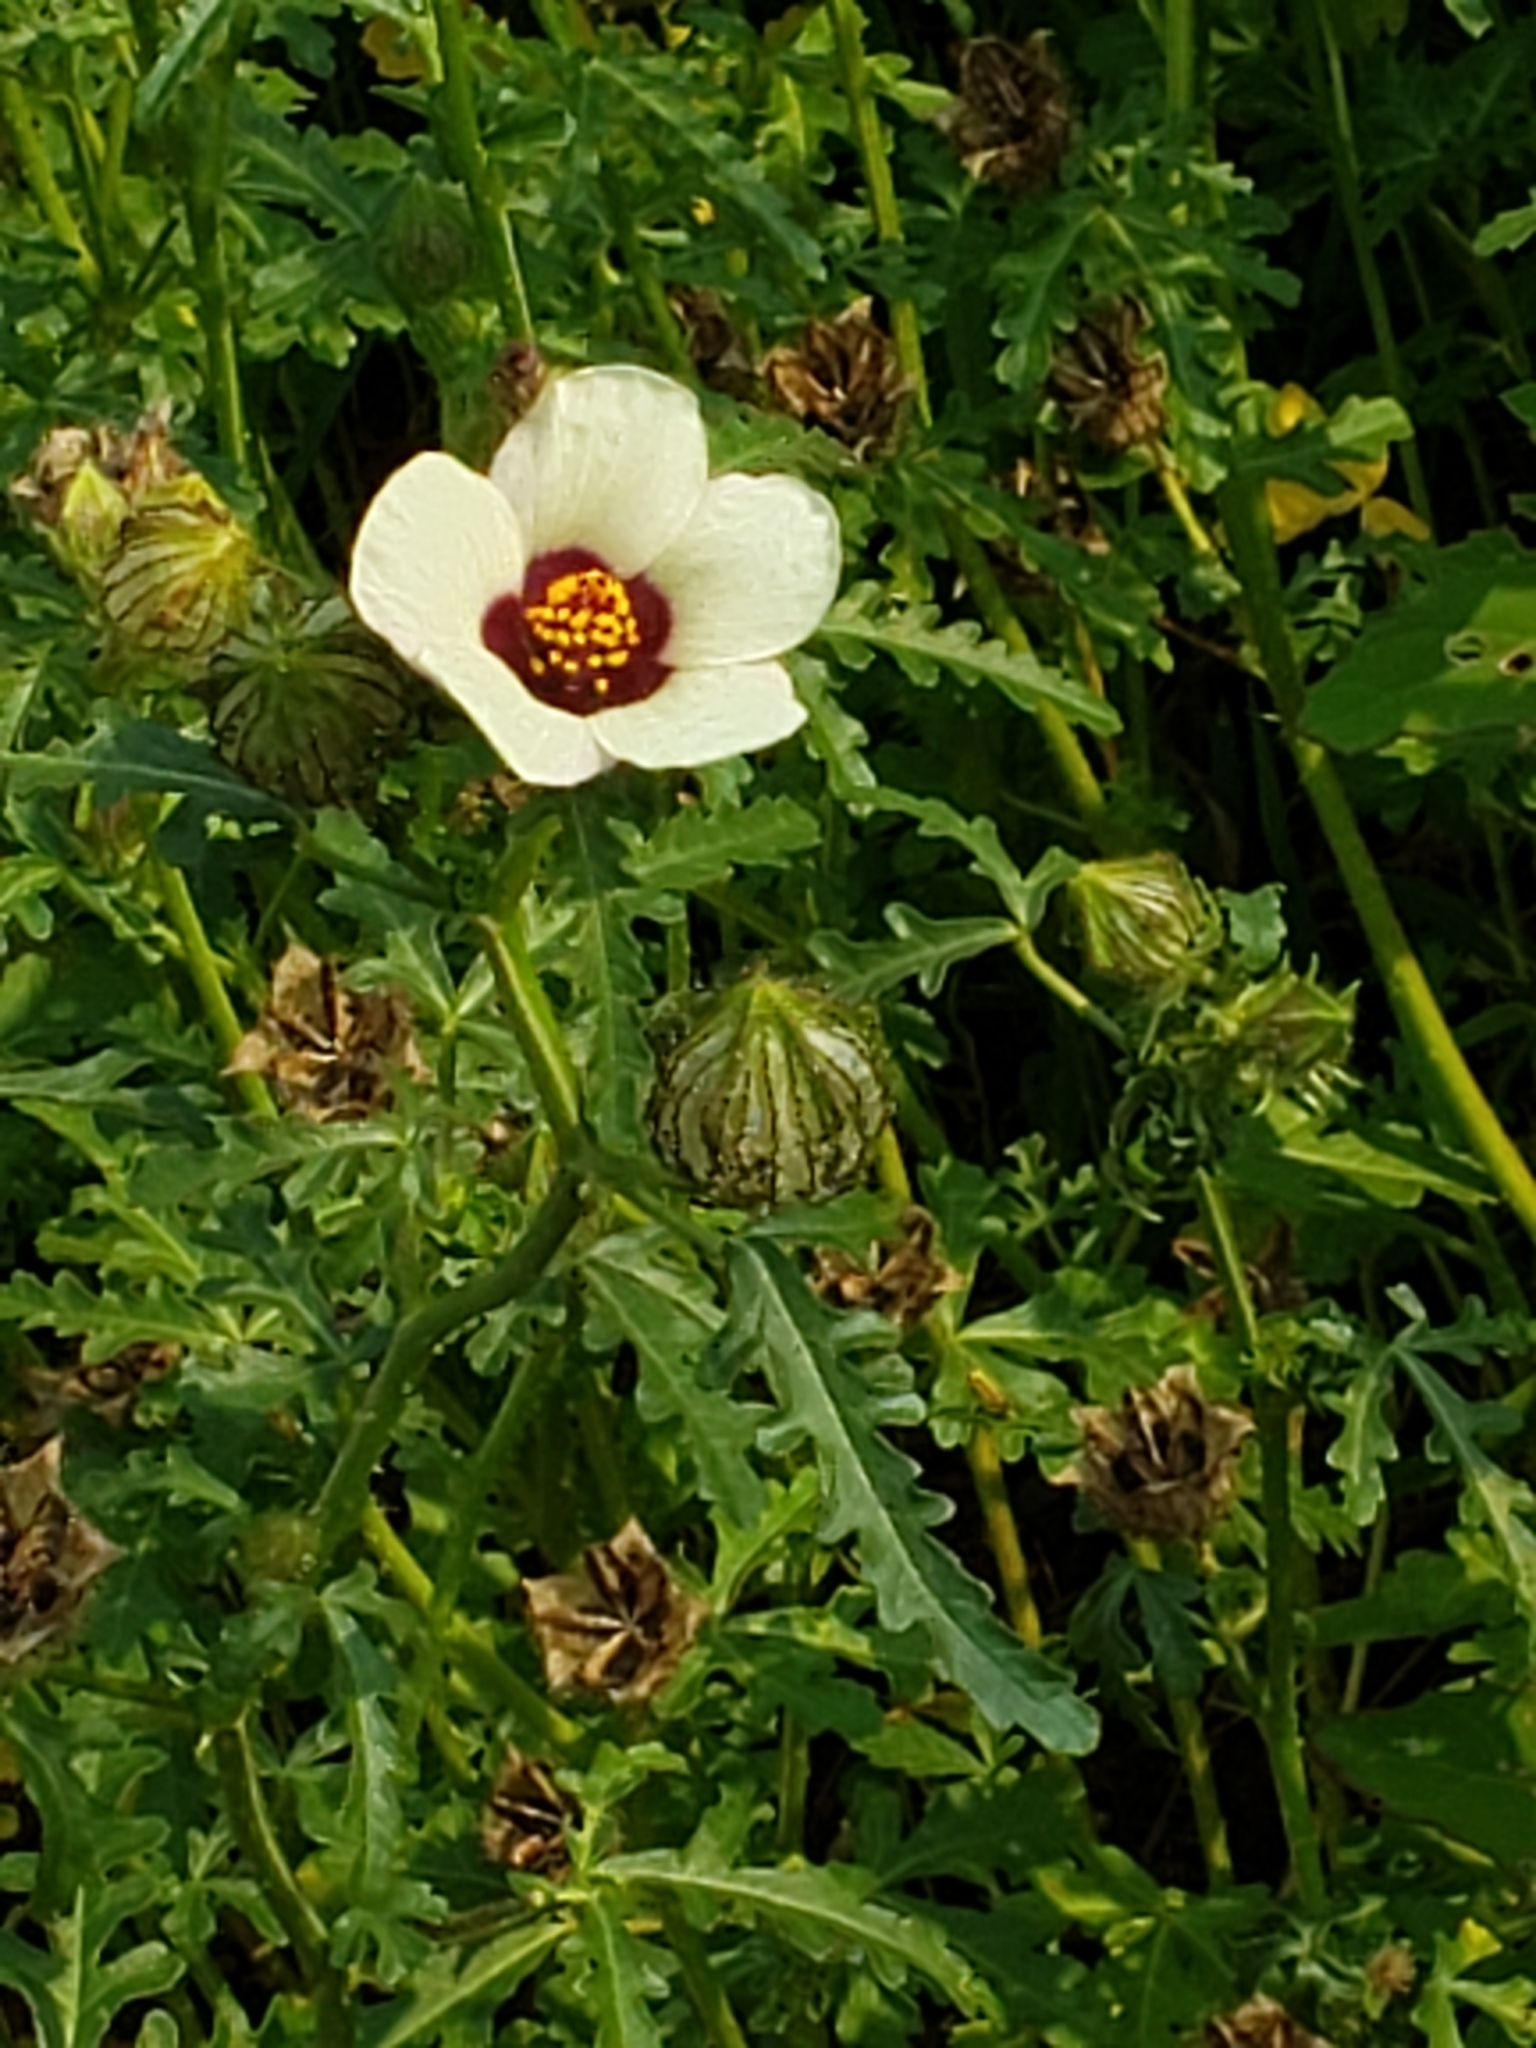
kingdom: Plantae
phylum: Tracheophyta
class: Magnoliopsida
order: Malvales
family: Malvaceae
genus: Hibiscus
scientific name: Hibiscus trionum
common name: Bladder ketmia
